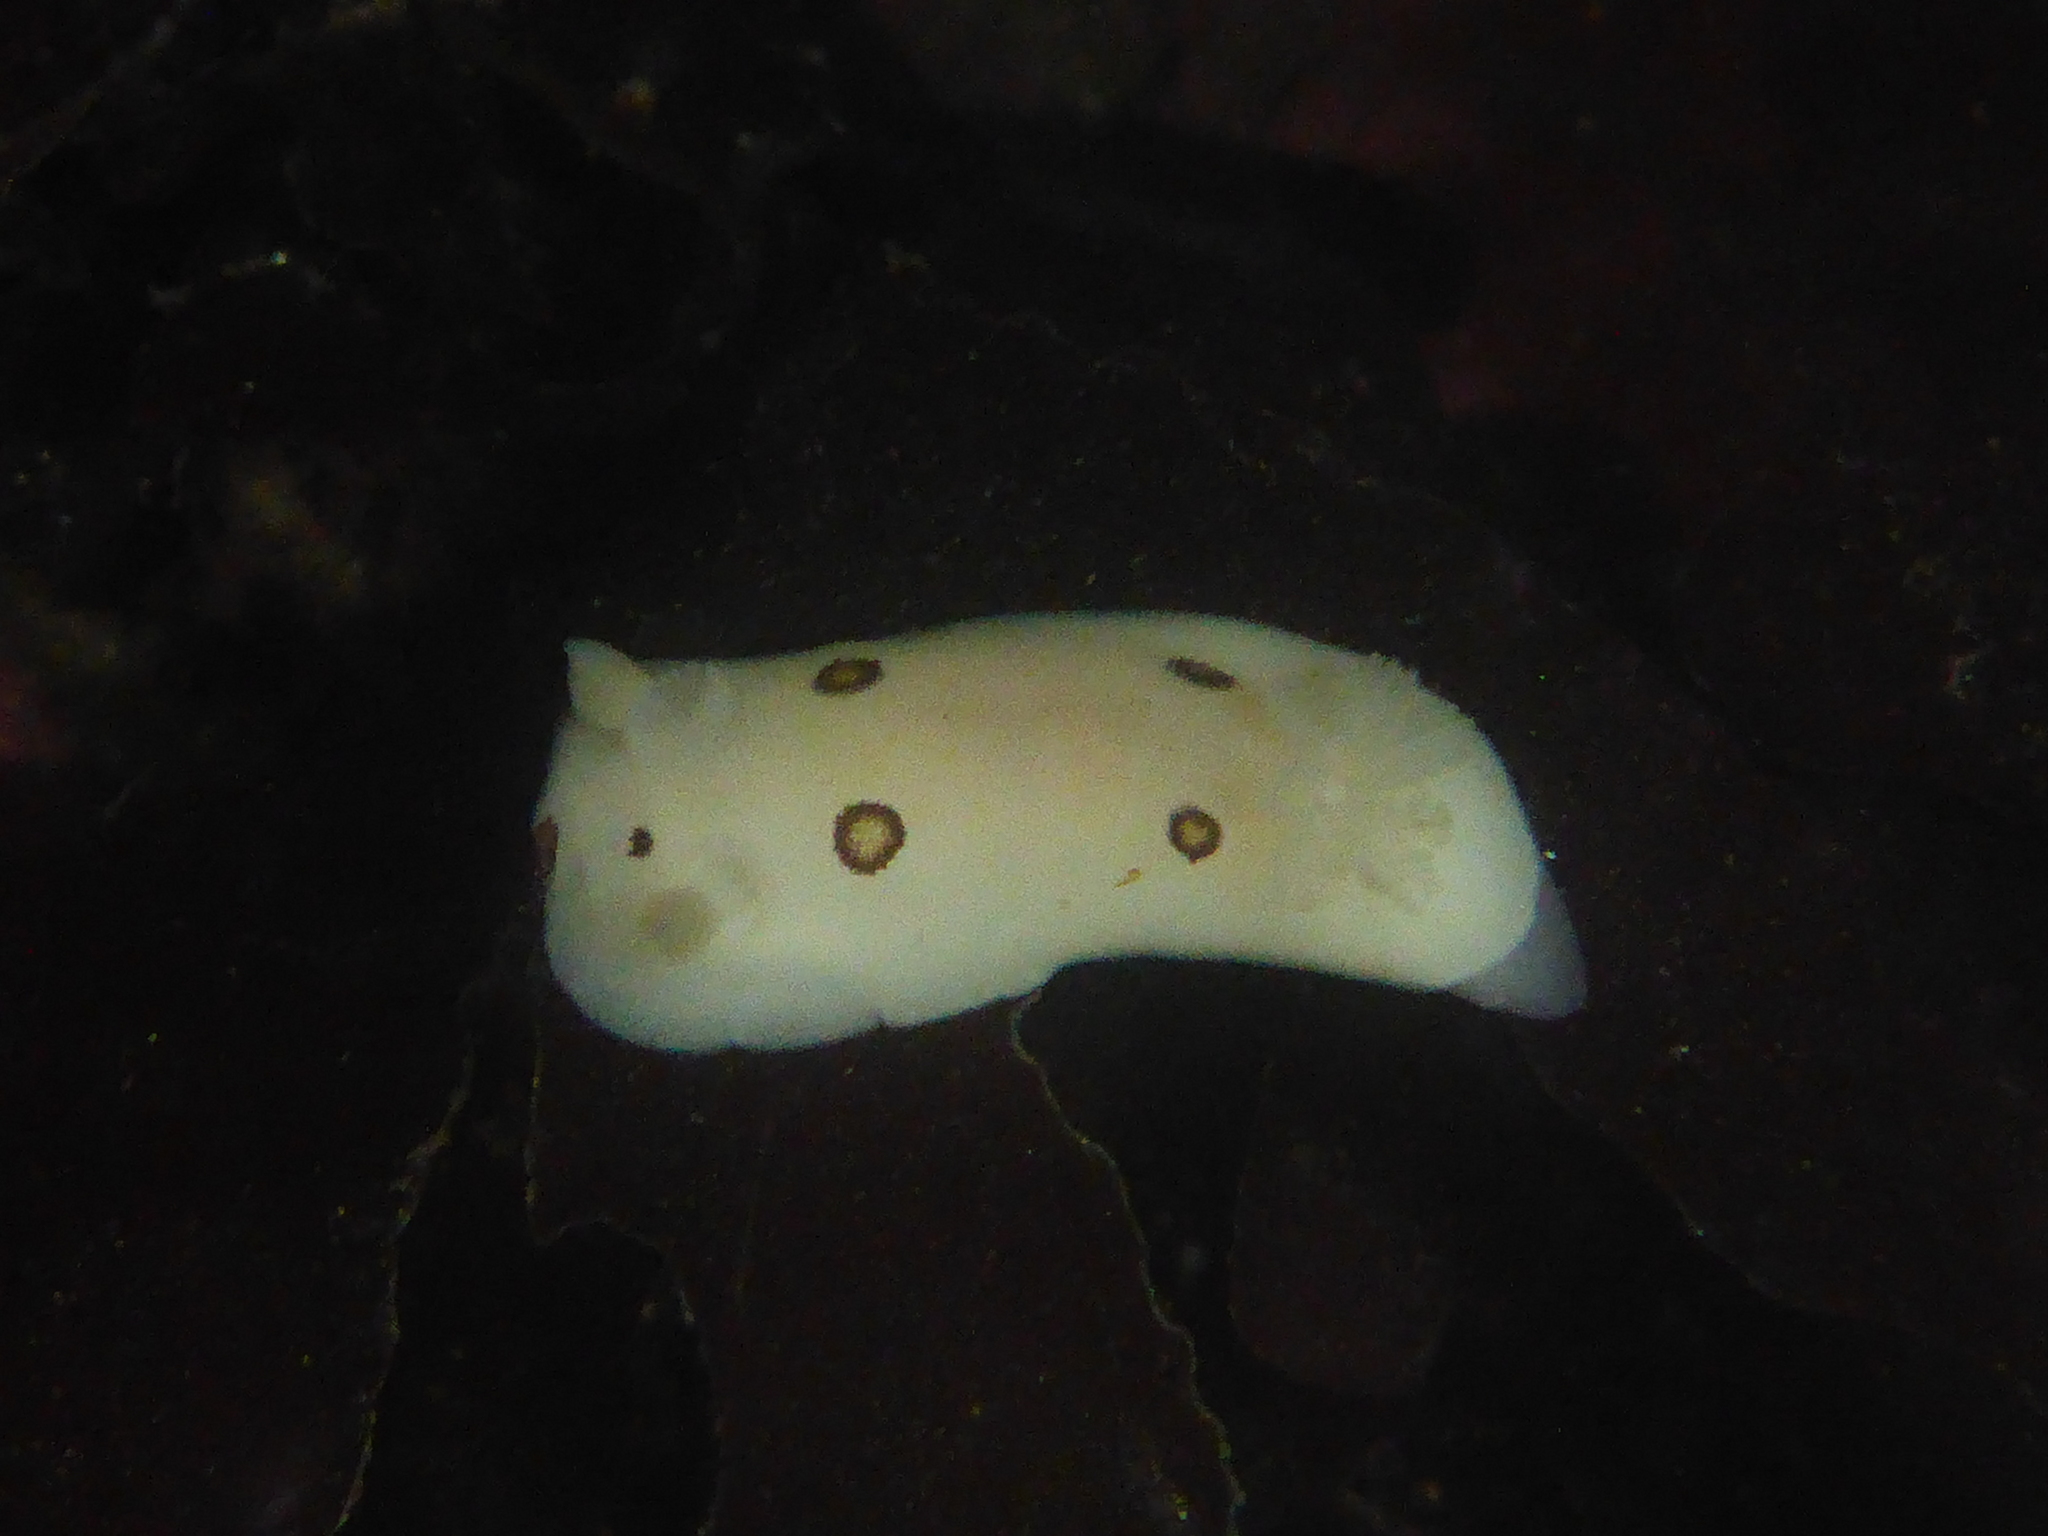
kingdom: Animalia
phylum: Mollusca
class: Gastropoda
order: Nudibranchia
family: Discodorididae
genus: Diaulula
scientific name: Diaulula sandiegensis
